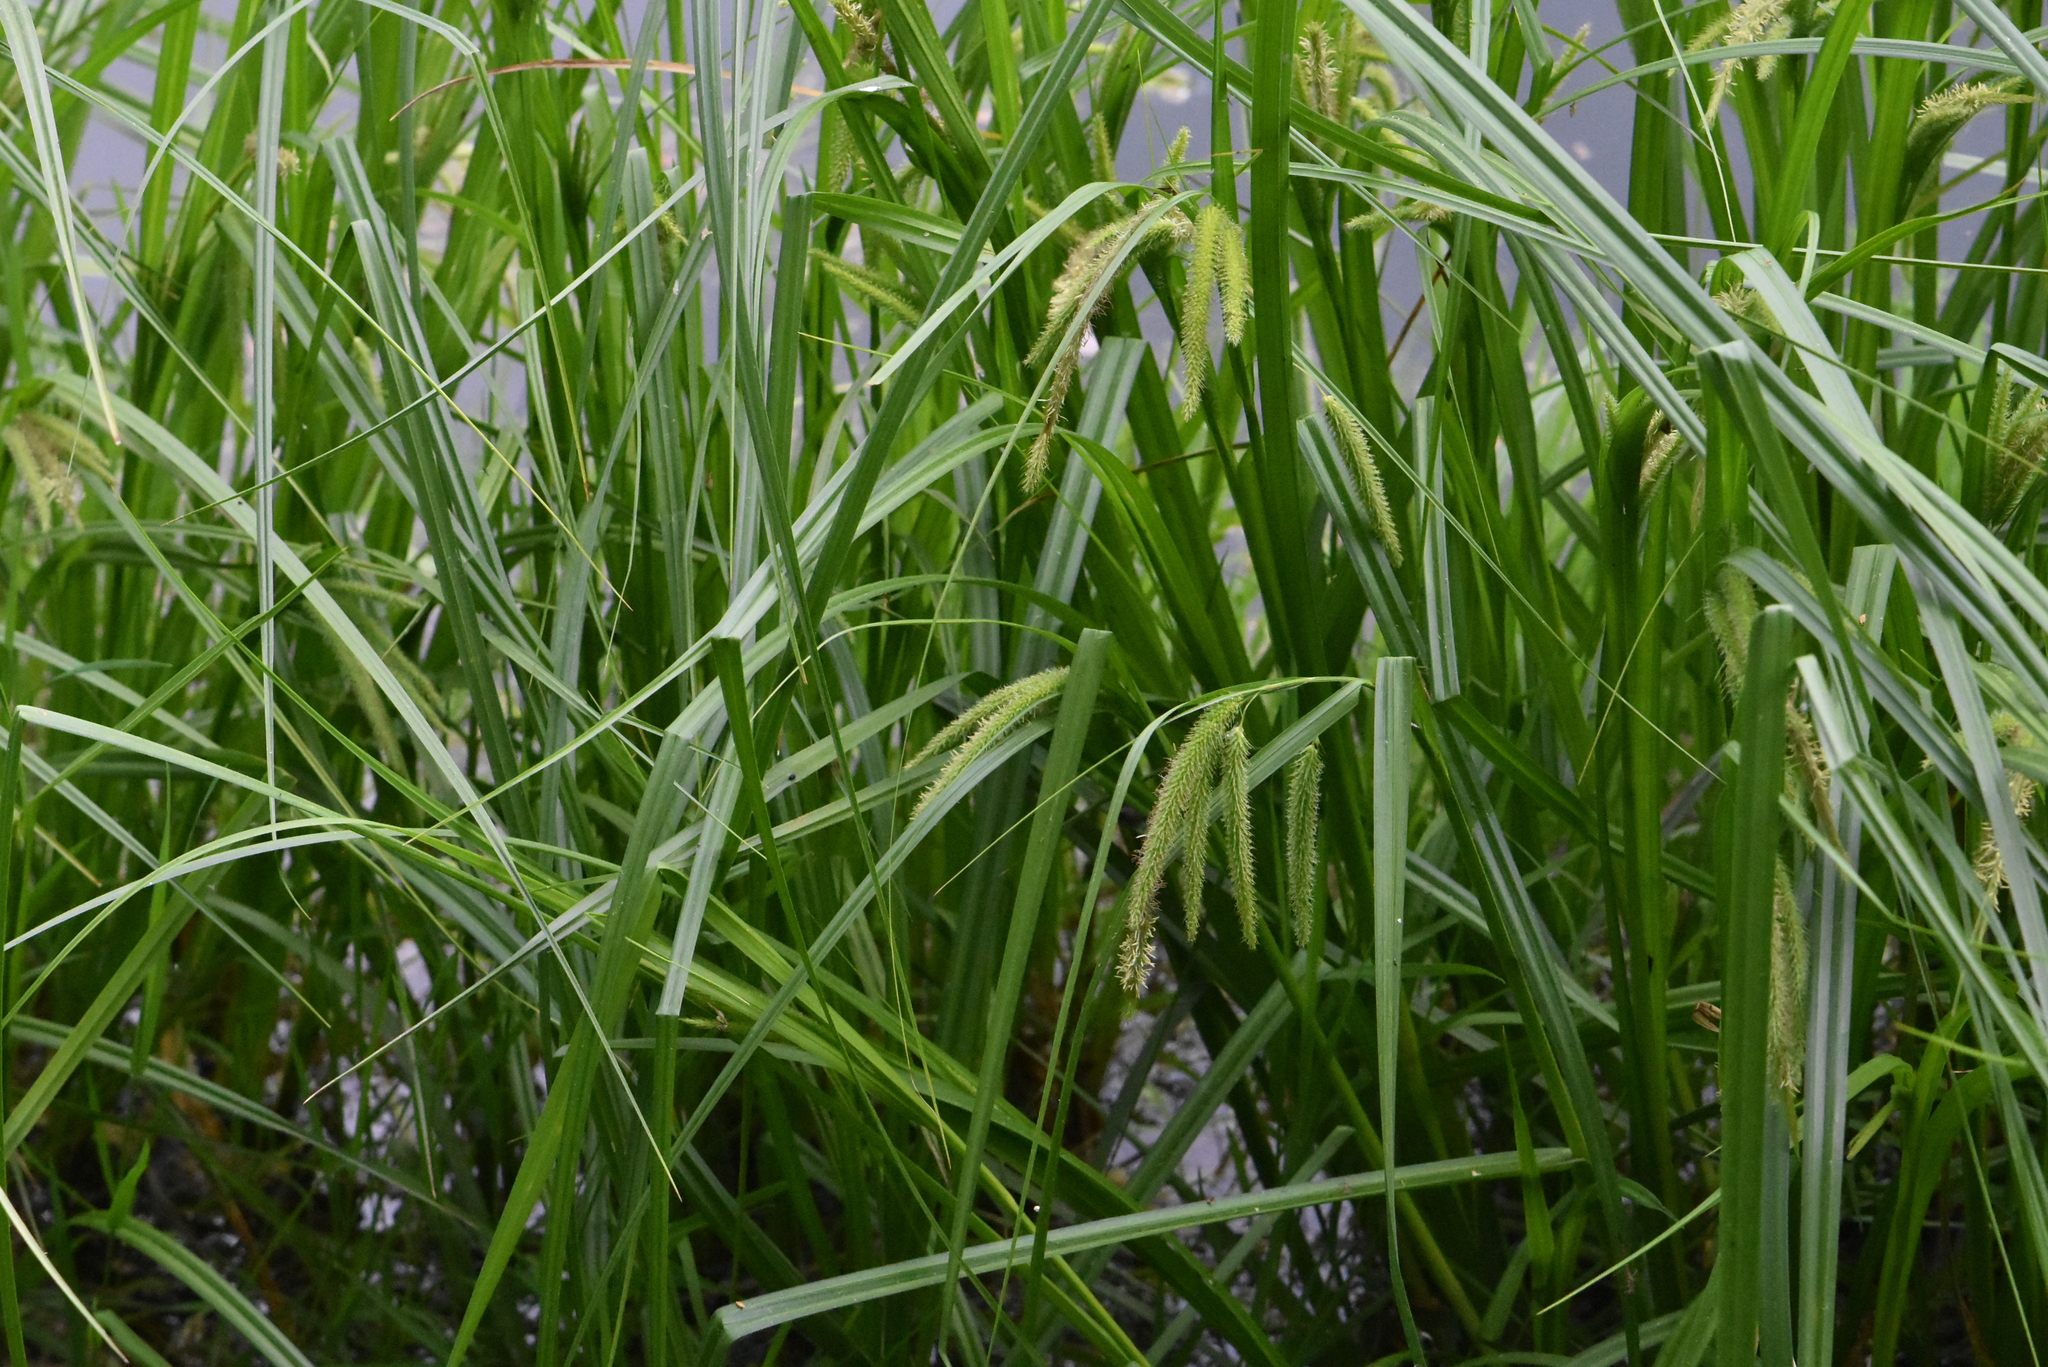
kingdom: Plantae
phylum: Tracheophyta
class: Liliopsida
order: Poales
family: Cyperaceae
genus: Carex
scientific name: Carex pseudocyperus
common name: Cyperus sedge
